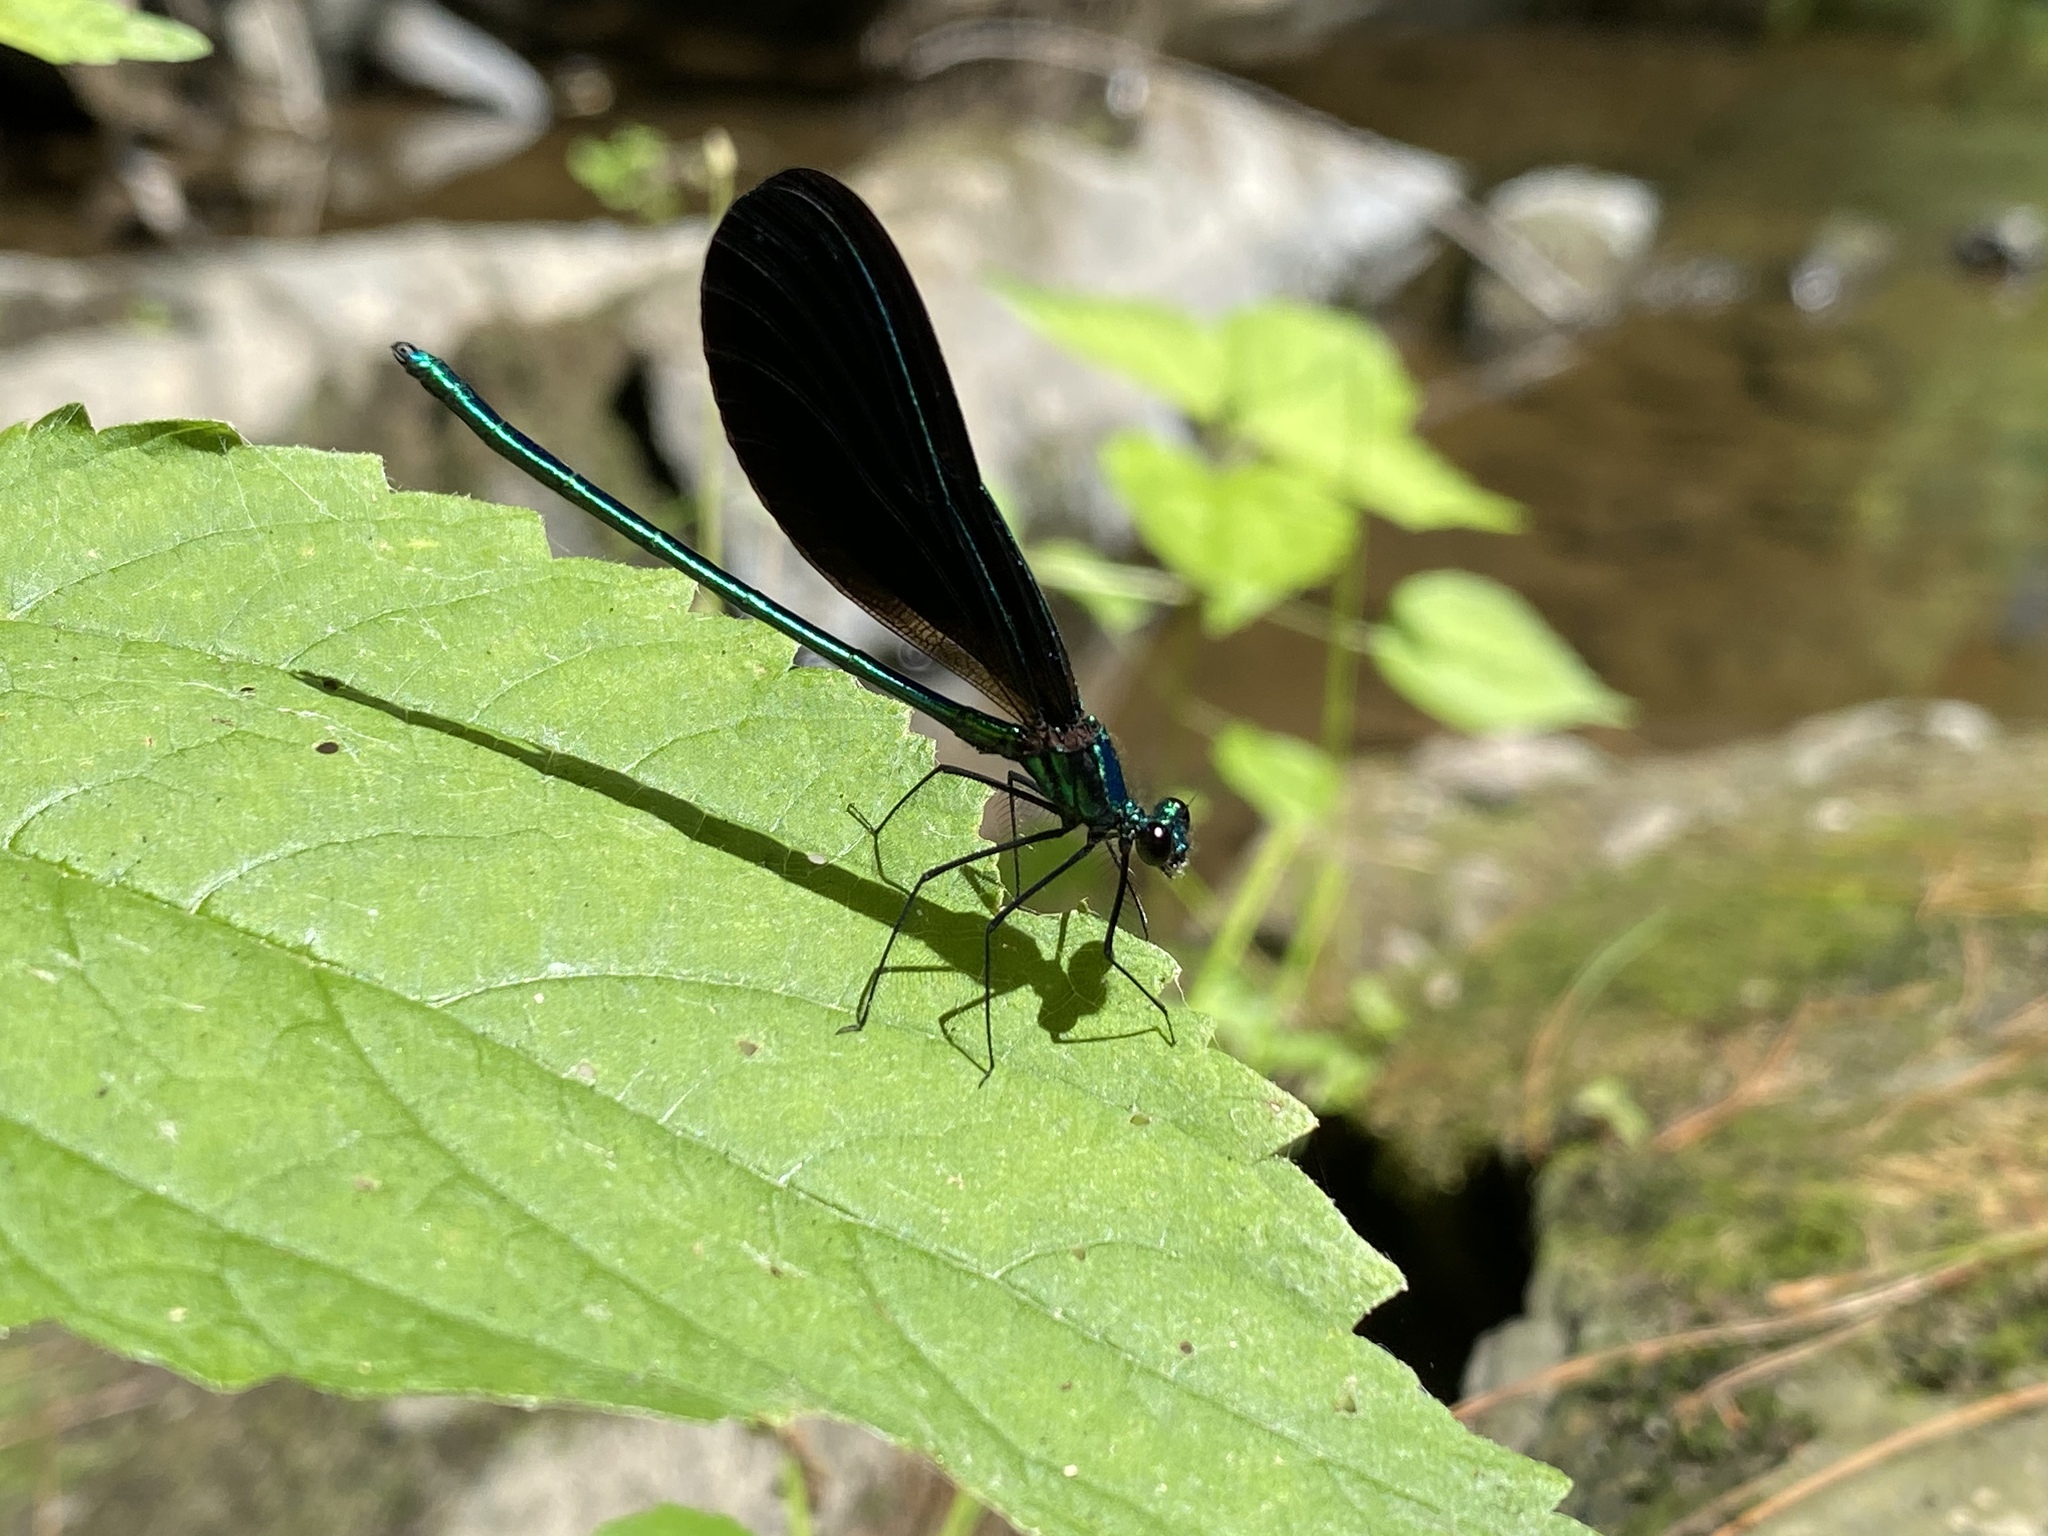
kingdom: Animalia
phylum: Arthropoda
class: Insecta
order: Odonata
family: Calopterygidae
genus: Calopteryx
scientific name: Calopteryx maculata
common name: Ebony jewelwing
